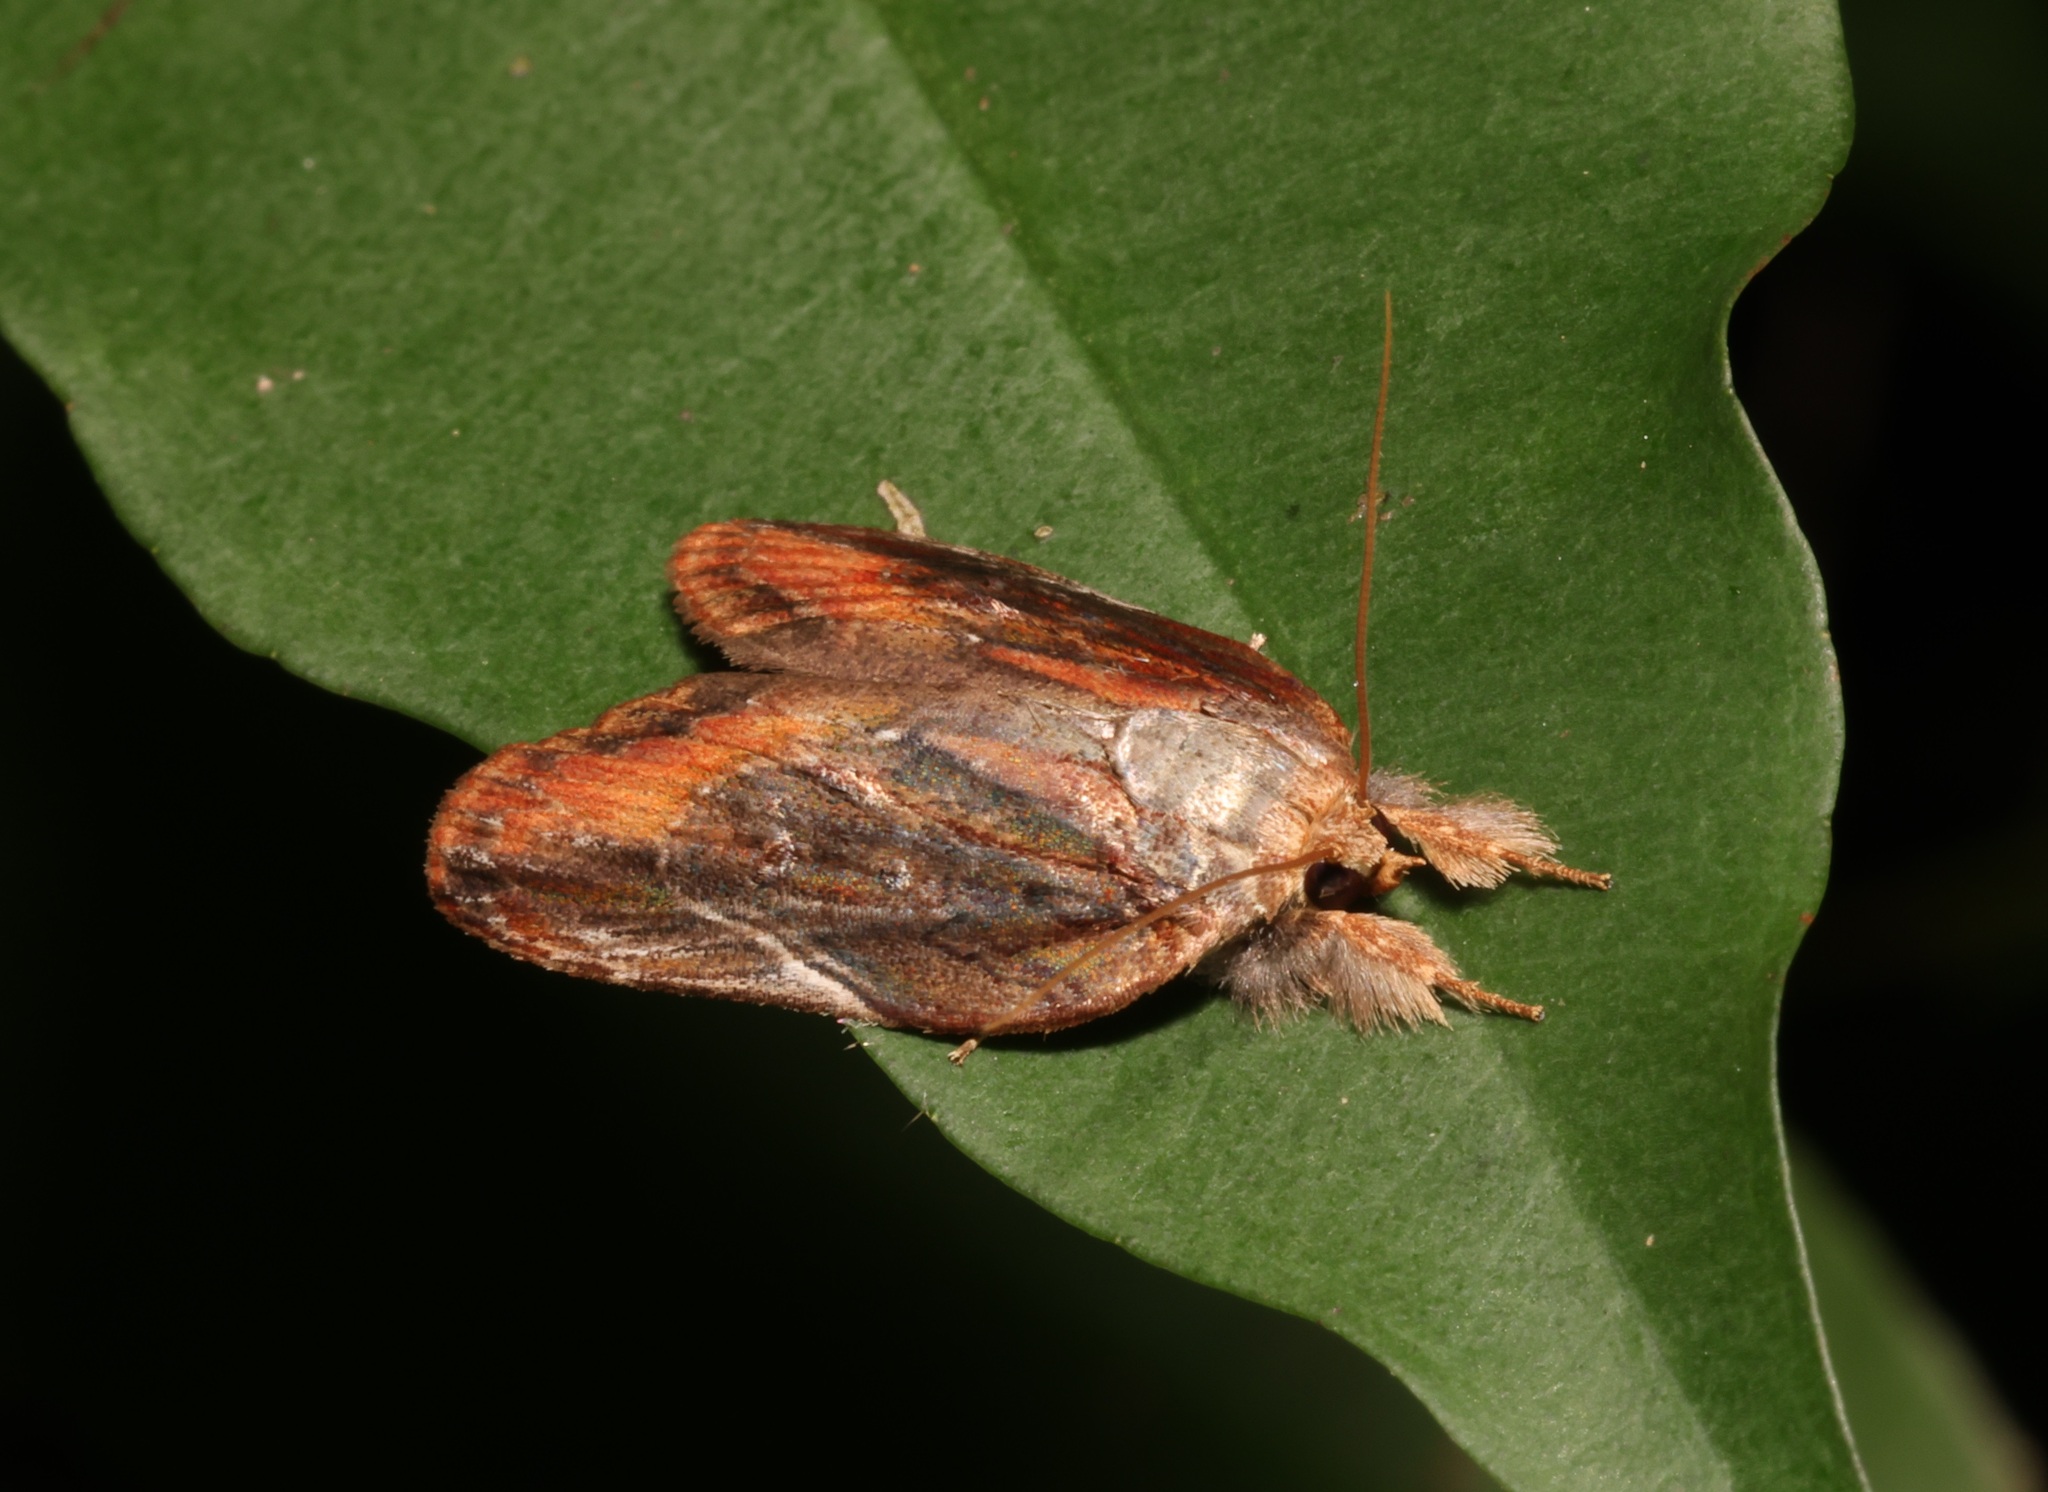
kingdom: Animalia
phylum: Arthropoda
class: Insecta
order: Lepidoptera
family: Nolidae
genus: Lamprothripa
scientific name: Lamprothripa scotia
